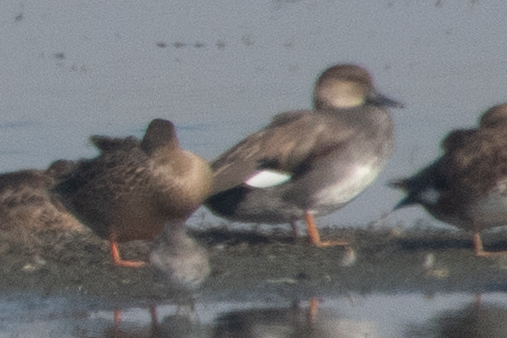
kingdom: Animalia
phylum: Chordata
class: Aves
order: Anseriformes
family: Anatidae
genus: Mareca
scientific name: Mareca strepera
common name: Gadwall
